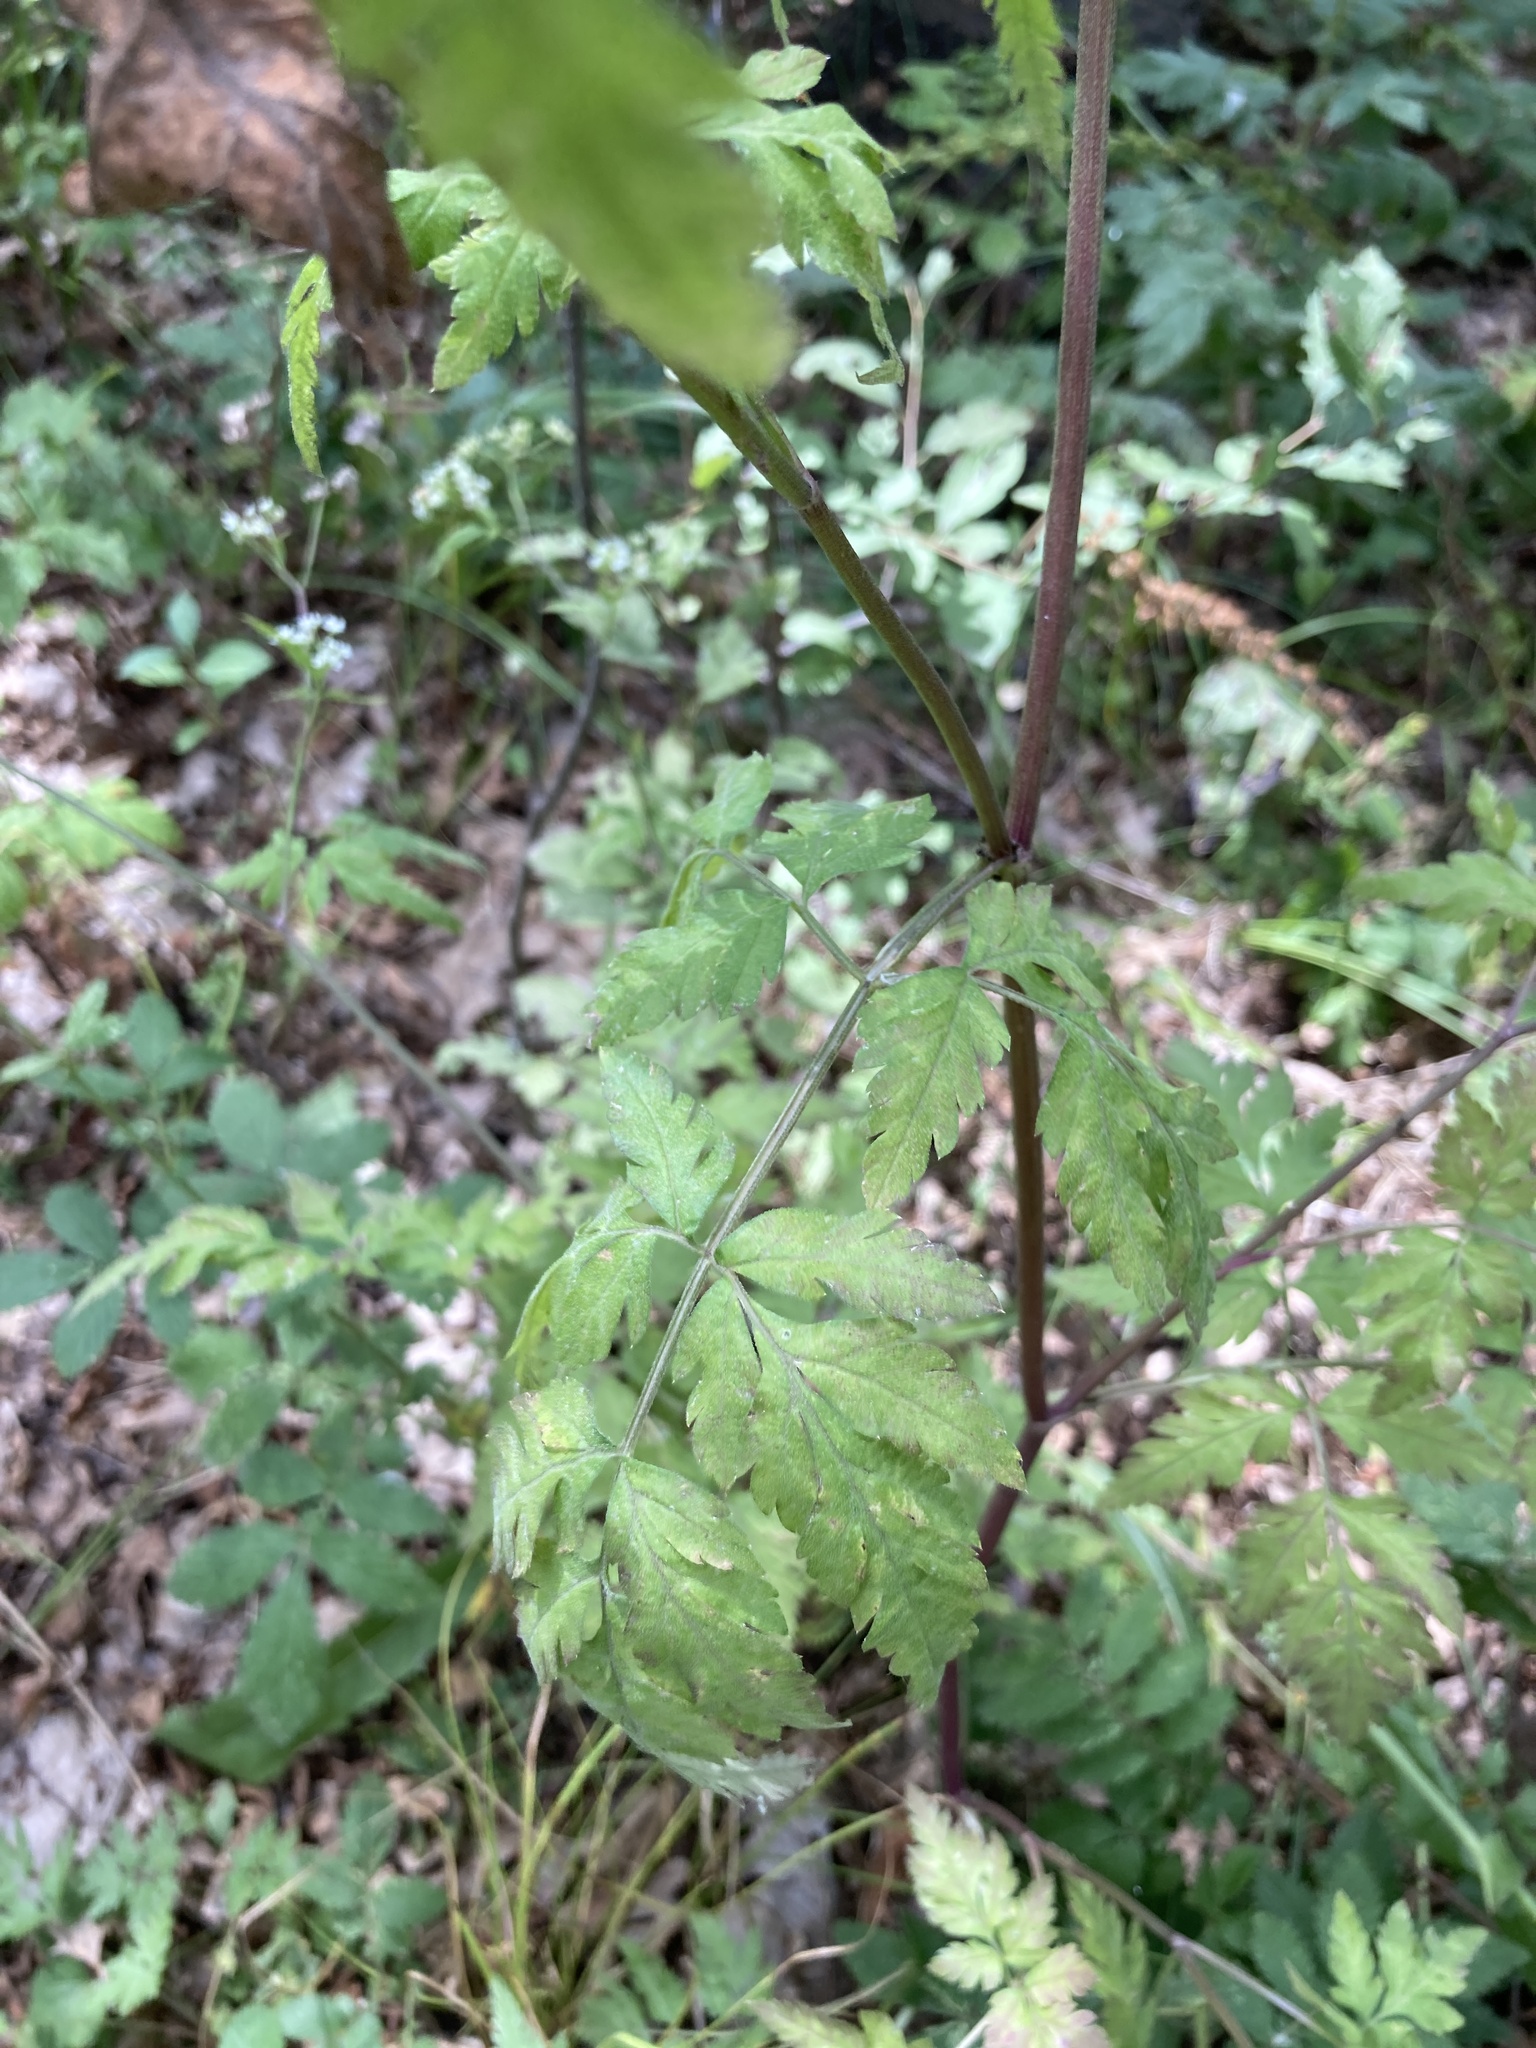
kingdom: Plantae
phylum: Tracheophyta
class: Magnoliopsida
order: Apiales
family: Apiaceae
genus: Torilis
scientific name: Torilis japonica
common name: Upright hedge-parsley
